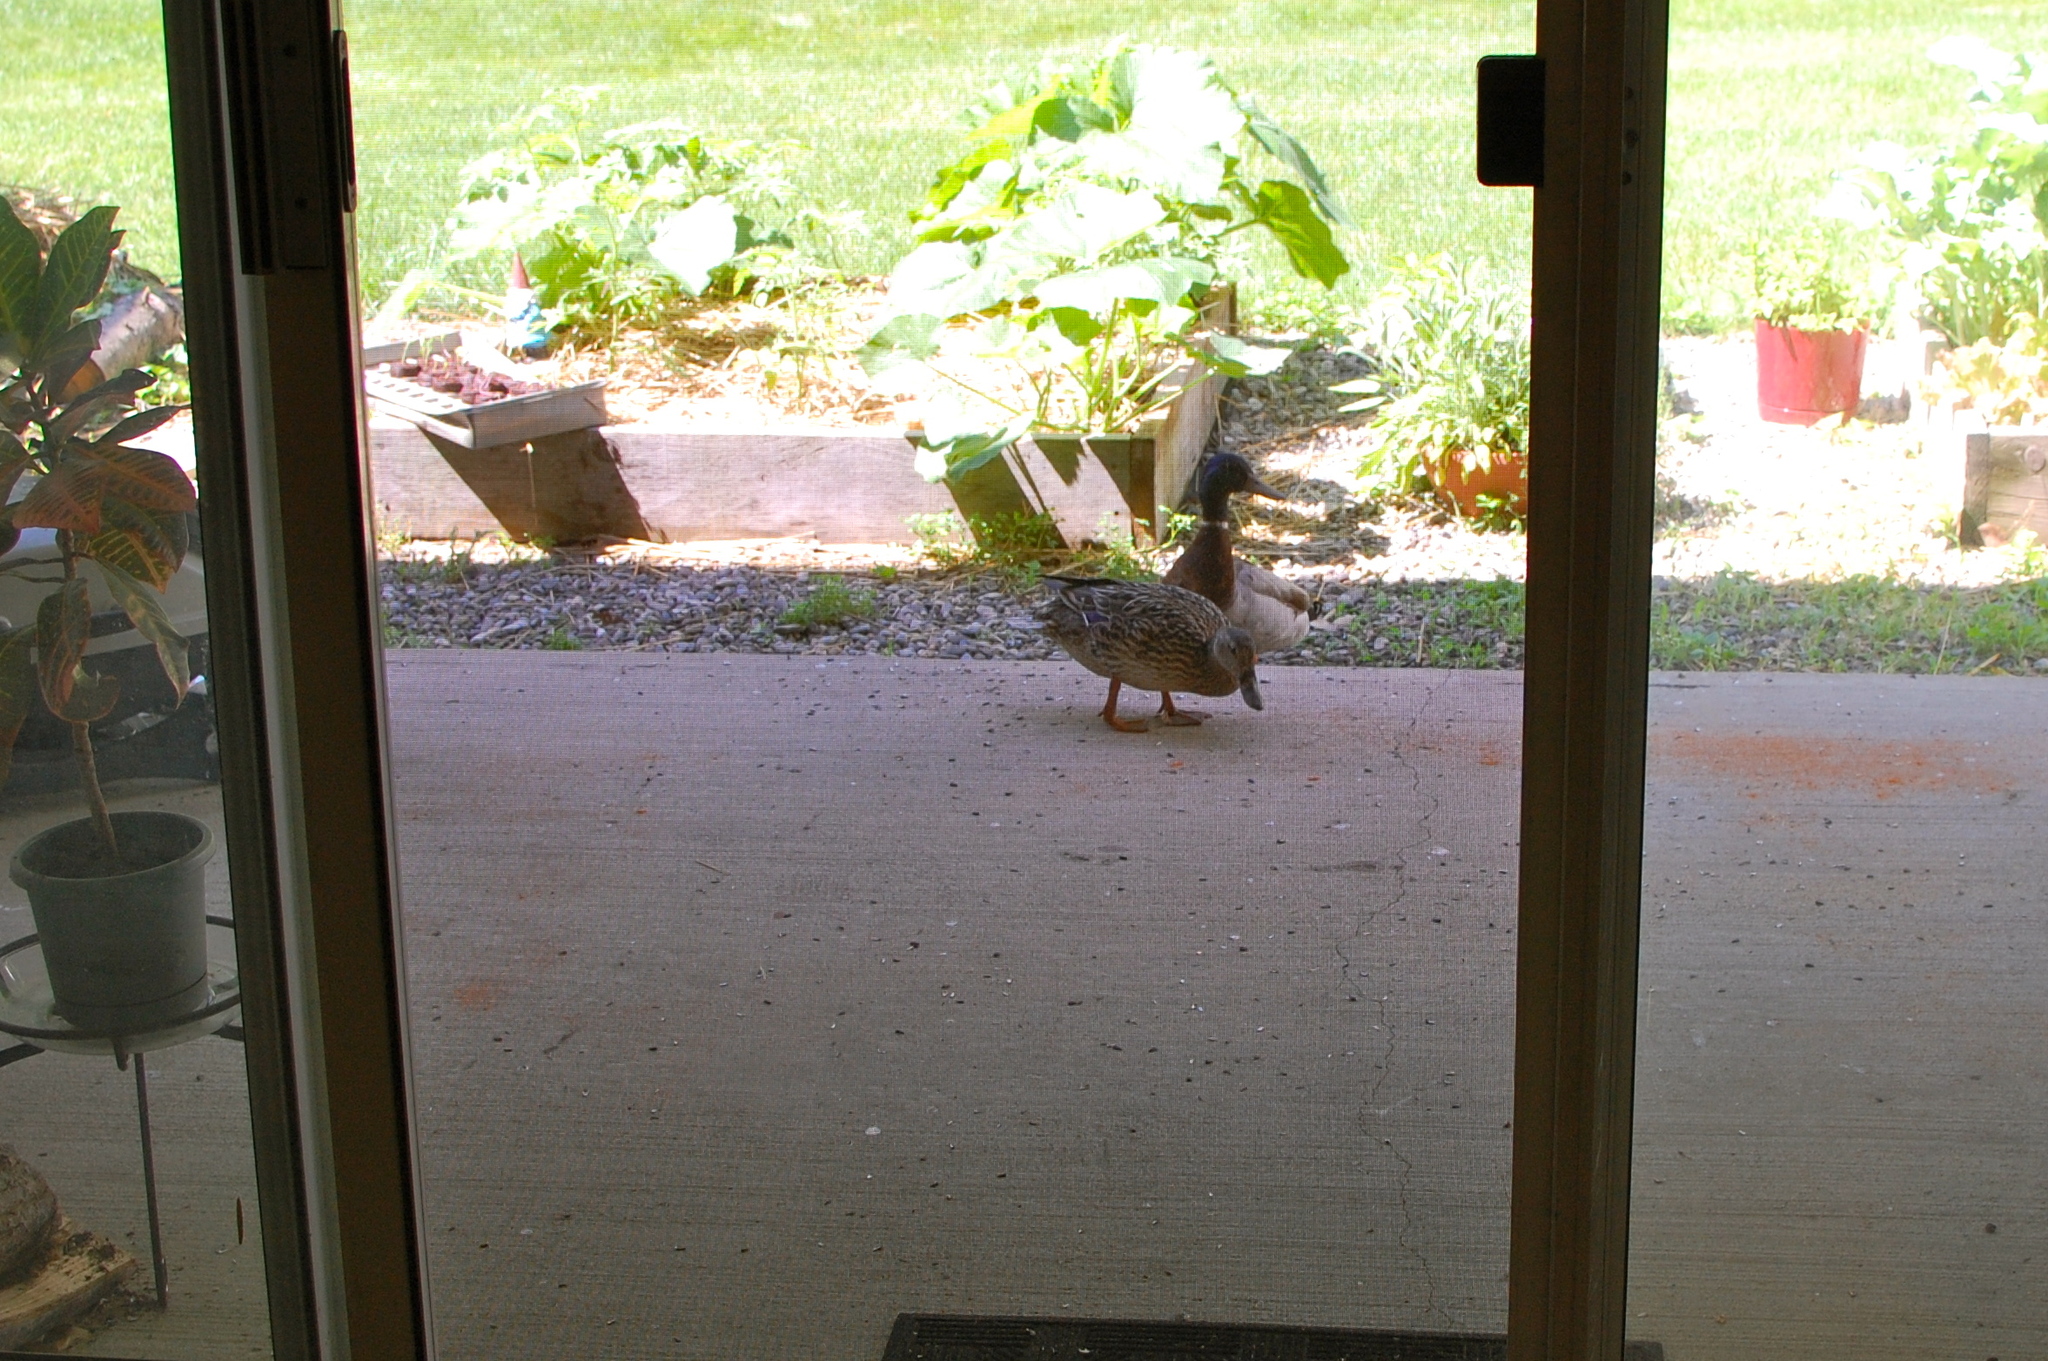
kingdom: Animalia
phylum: Chordata
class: Aves
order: Anseriformes
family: Anatidae
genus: Anas
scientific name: Anas platyrhynchos
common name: Mallard
